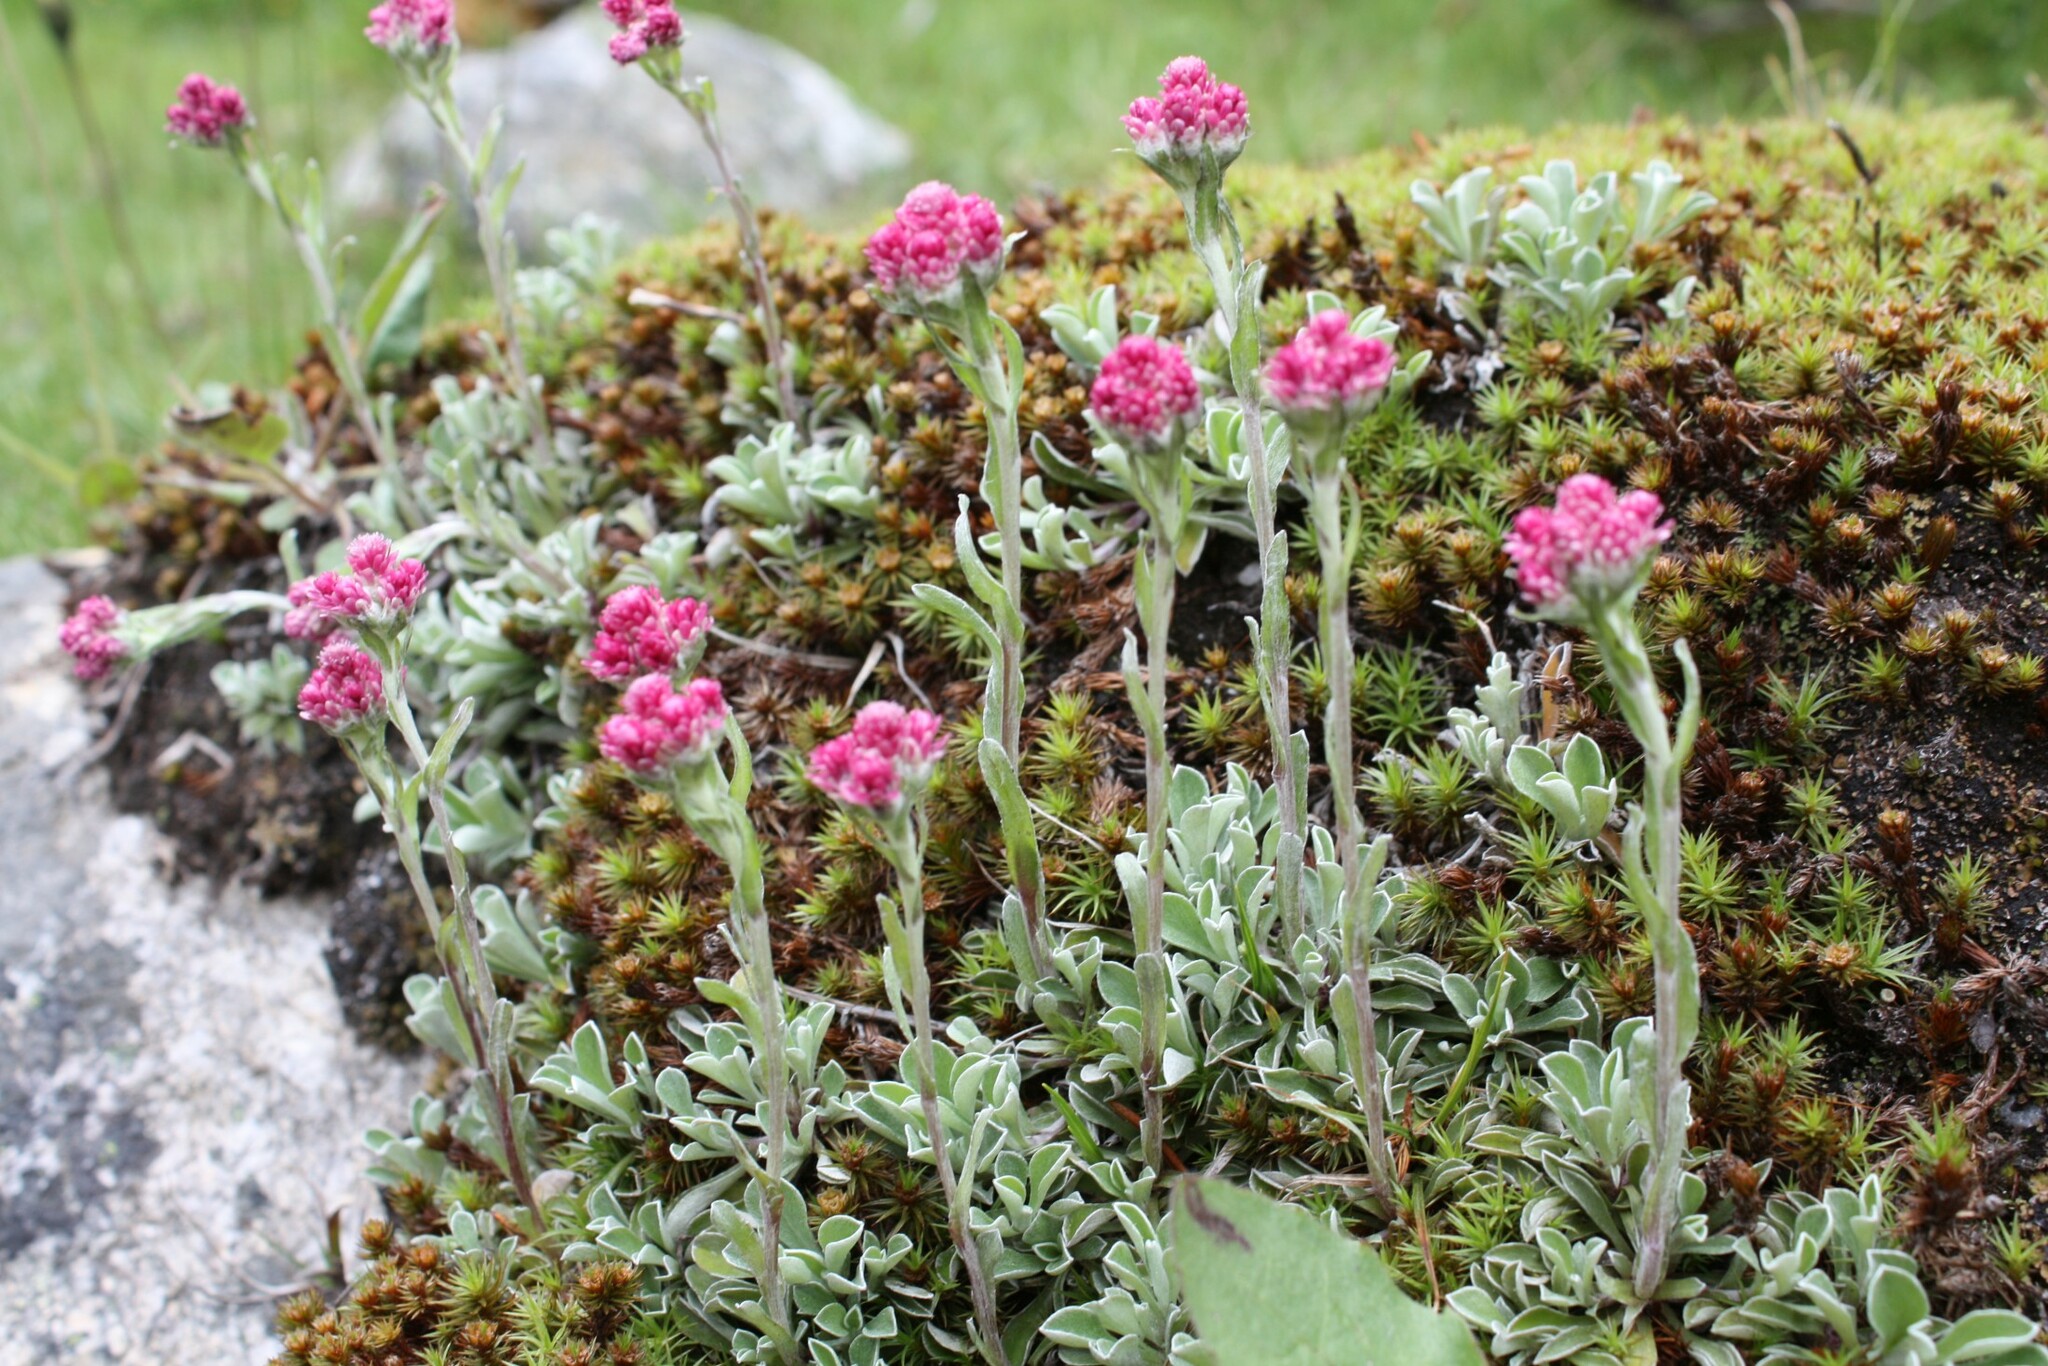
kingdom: Plantae
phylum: Tracheophyta
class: Magnoliopsida
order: Asterales
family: Asteraceae
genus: Antennaria
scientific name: Antennaria dioica
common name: Mountain everlasting
